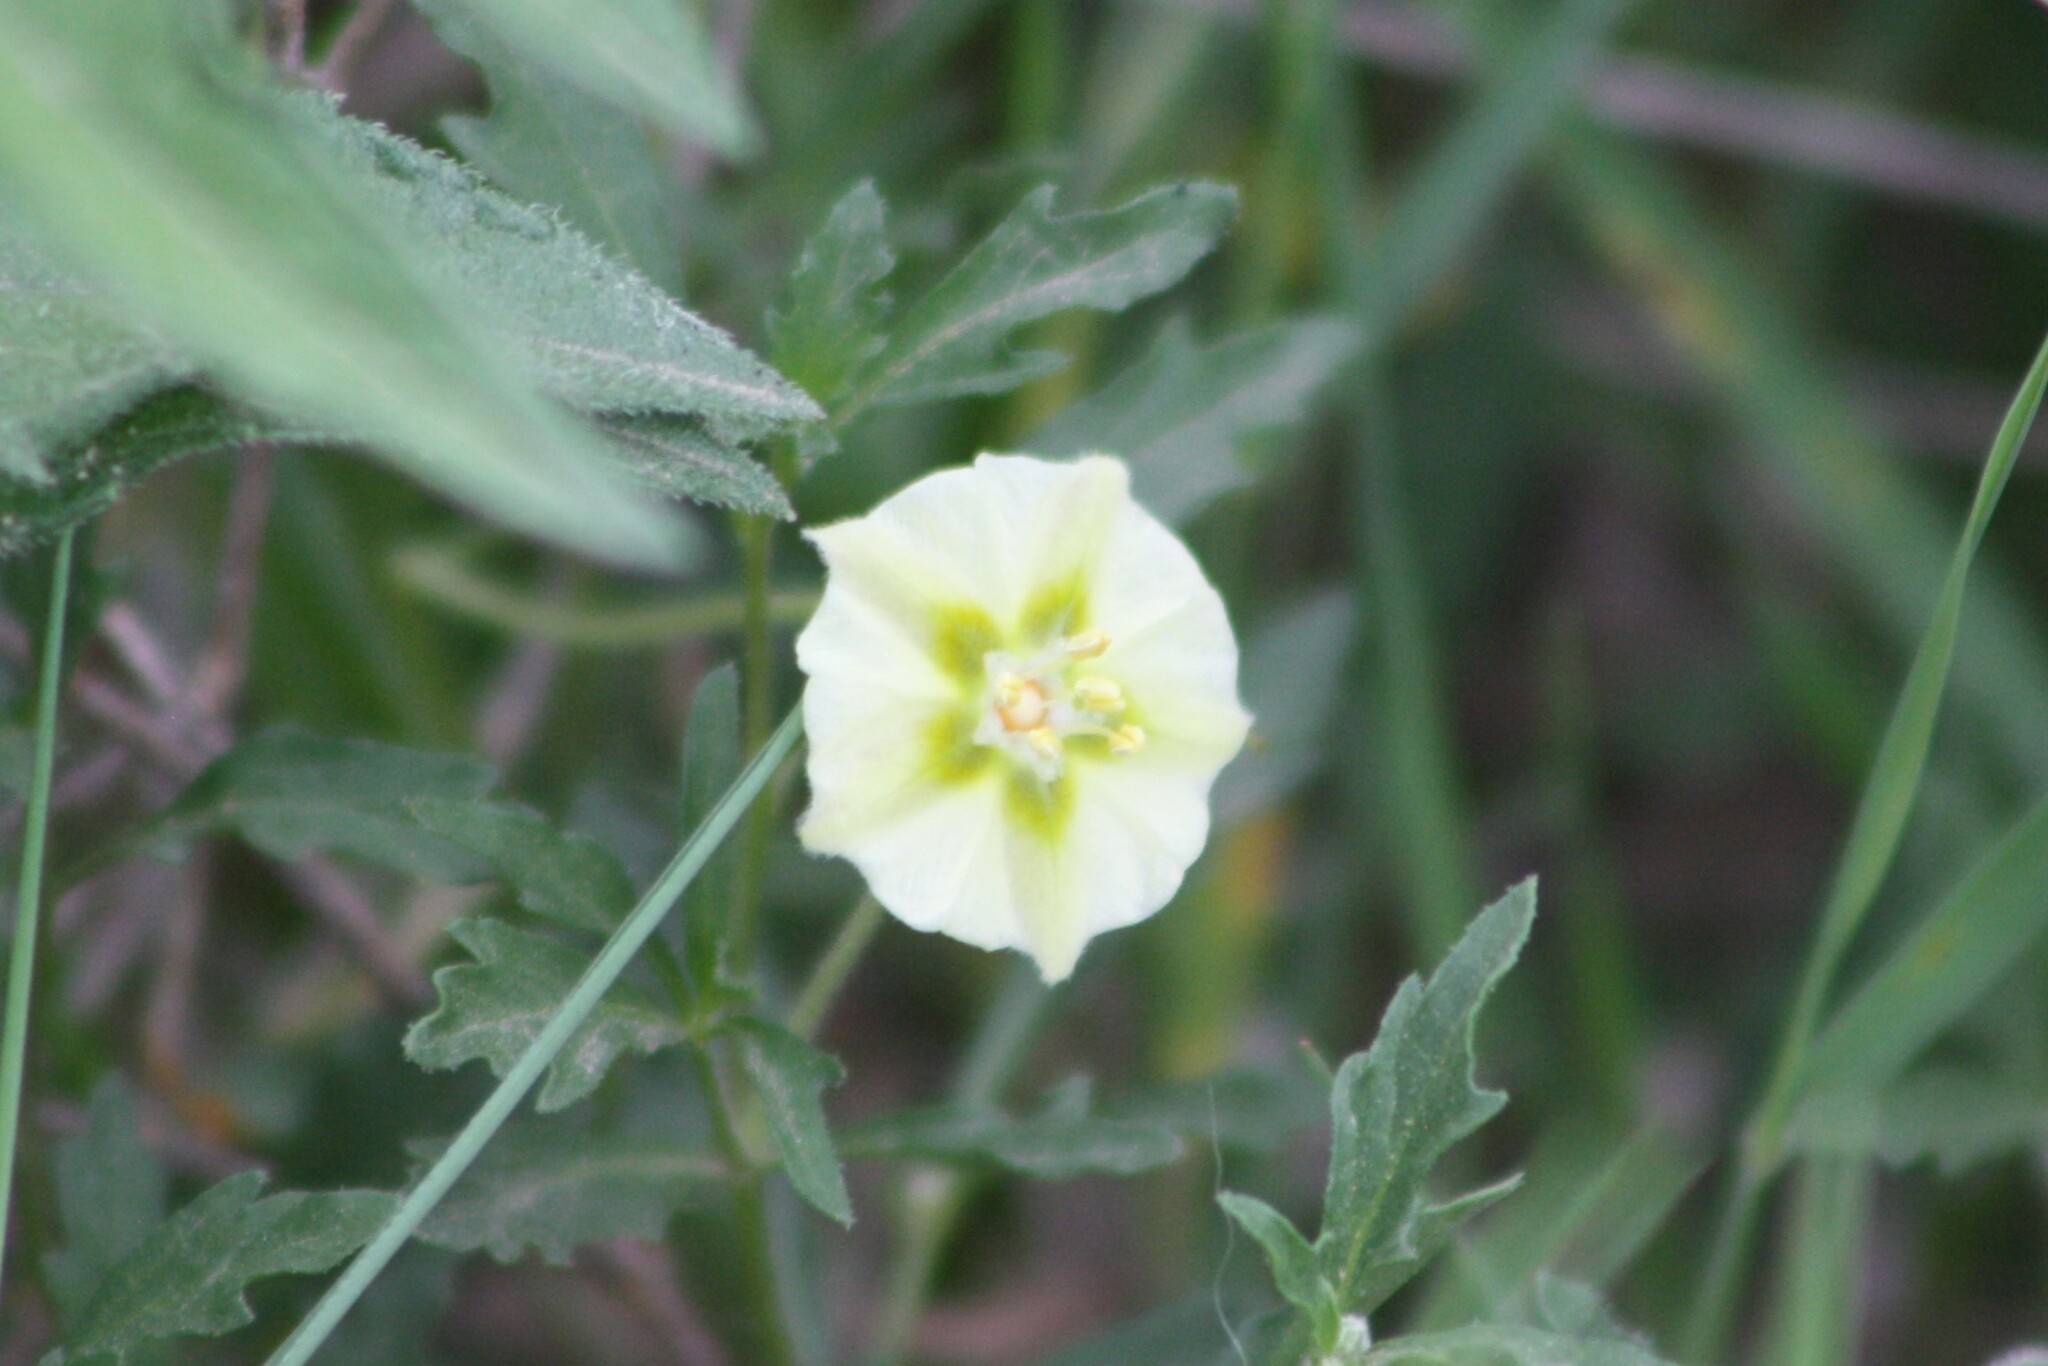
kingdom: Plantae
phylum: Tracheophyta
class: Magnoliopsida
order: Solanales
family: Solanaceae
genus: Chamaesaracha
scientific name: Chamaesaracha edwardsiana
